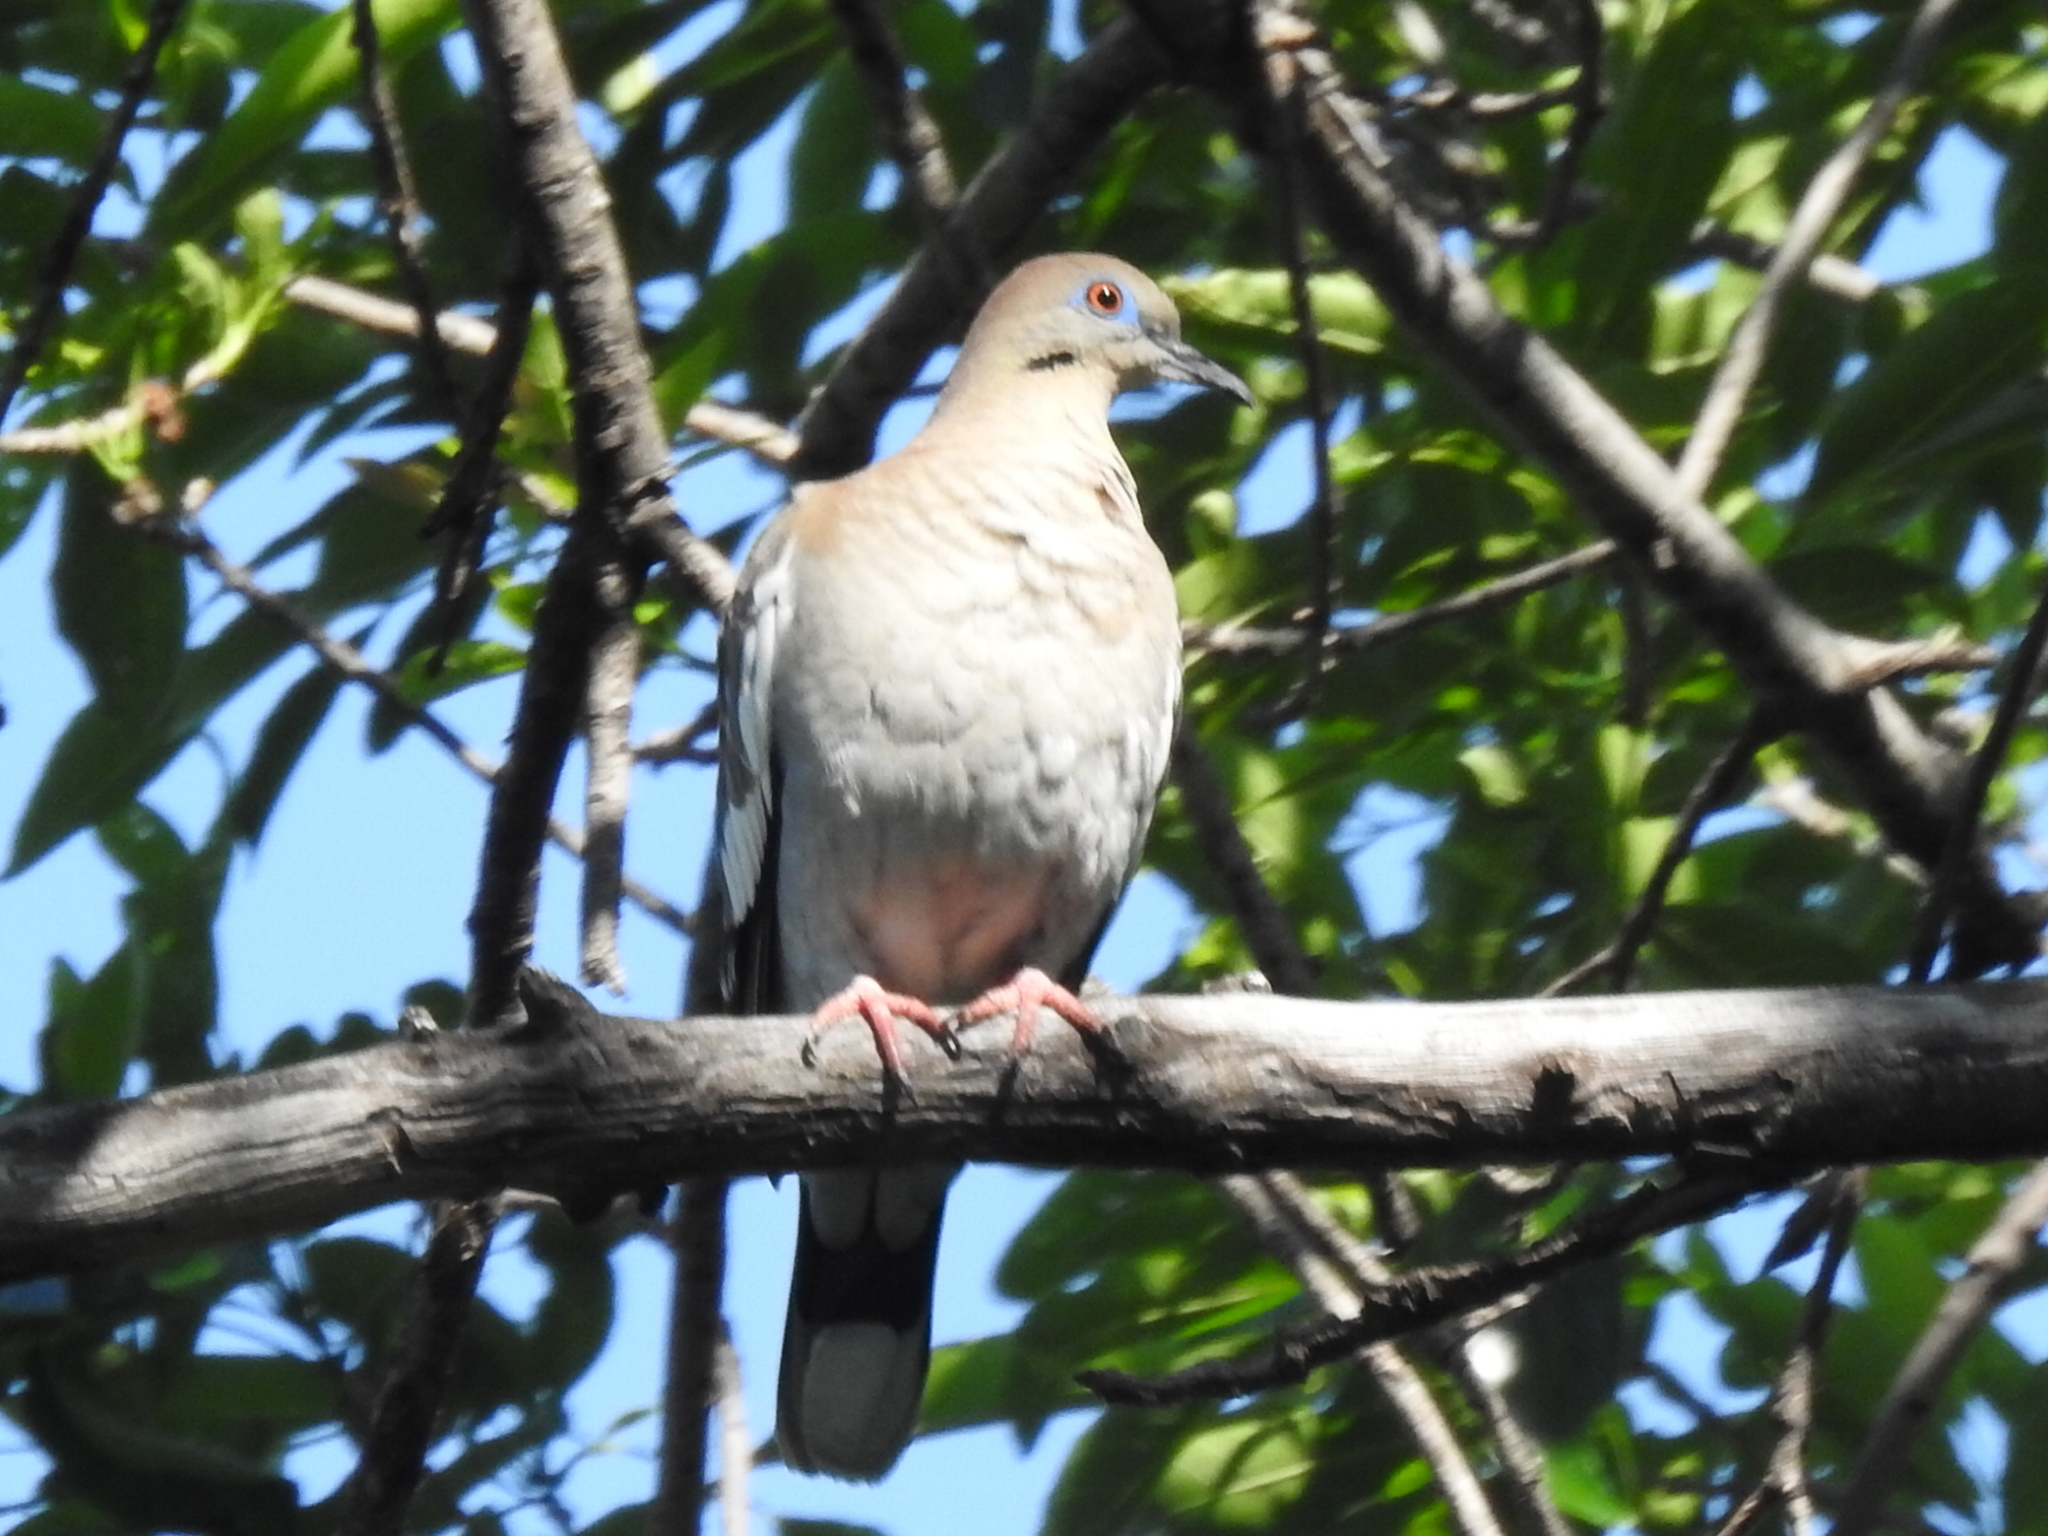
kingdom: Animalia
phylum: Chordata
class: Aves
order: Columbiformes
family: Columbidae
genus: Zenaida
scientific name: Zenaida asiatica
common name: White-winged dove
